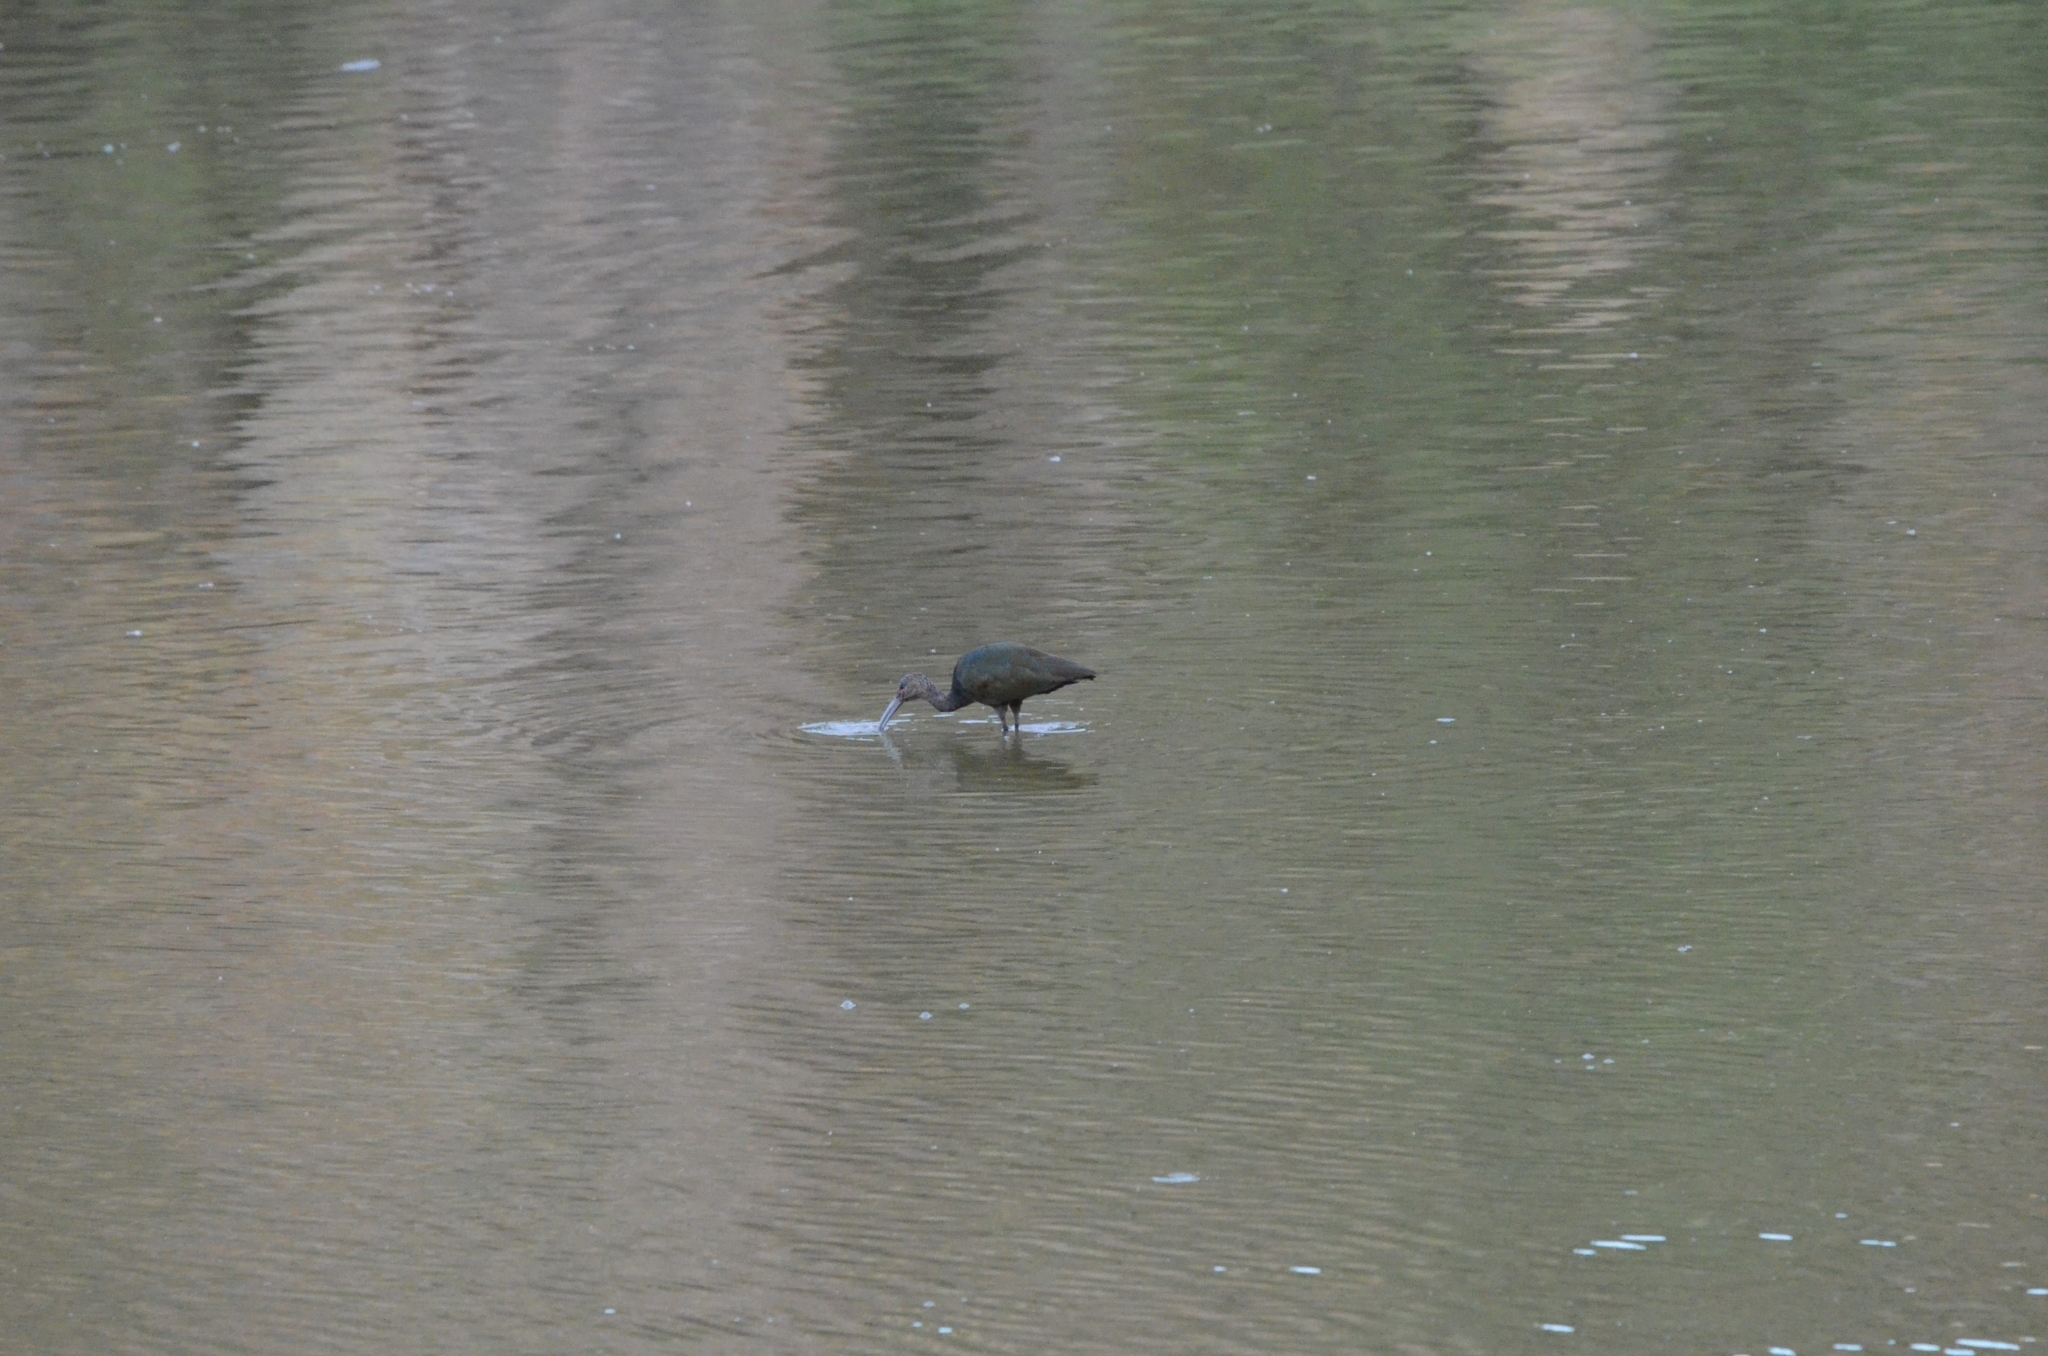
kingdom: Animalia
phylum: Chordata
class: Aves
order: Pelecaniformes
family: Threskiornithidae
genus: Plegadis
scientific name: Plegadis chihi
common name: White-faced ibis
